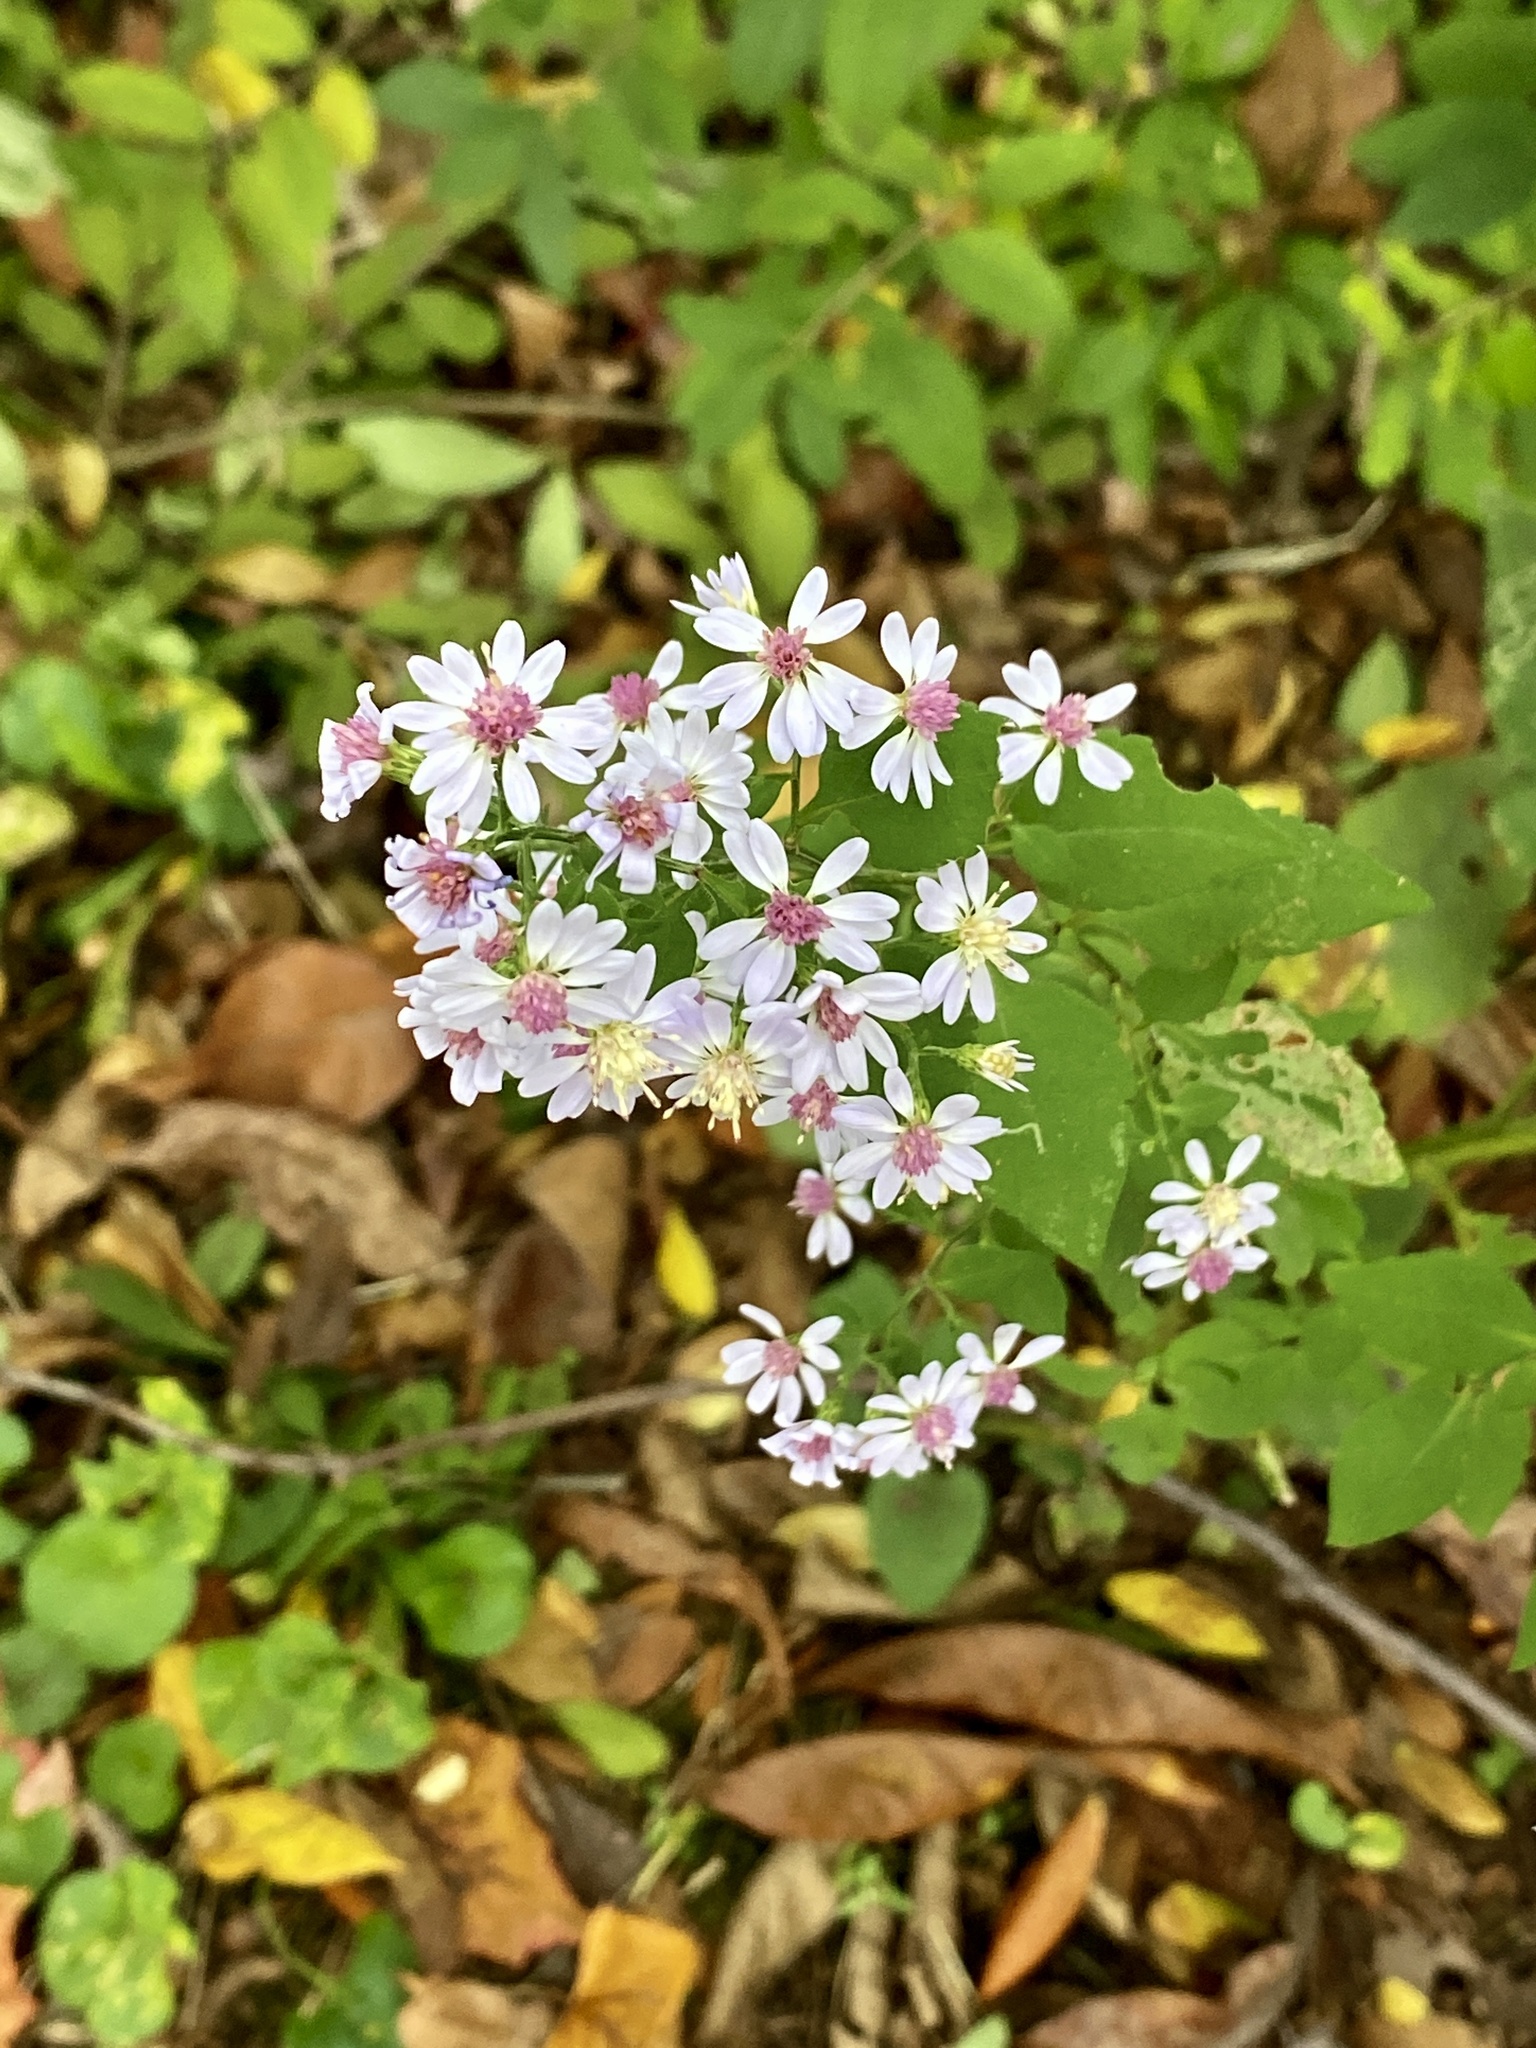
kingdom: Plantae
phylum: Tracheophyta
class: Magnoliopsida
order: Asterales
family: Asteraceae
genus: Symphyotrichum
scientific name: Symphyotrichum cordifolium
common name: Beeweed
